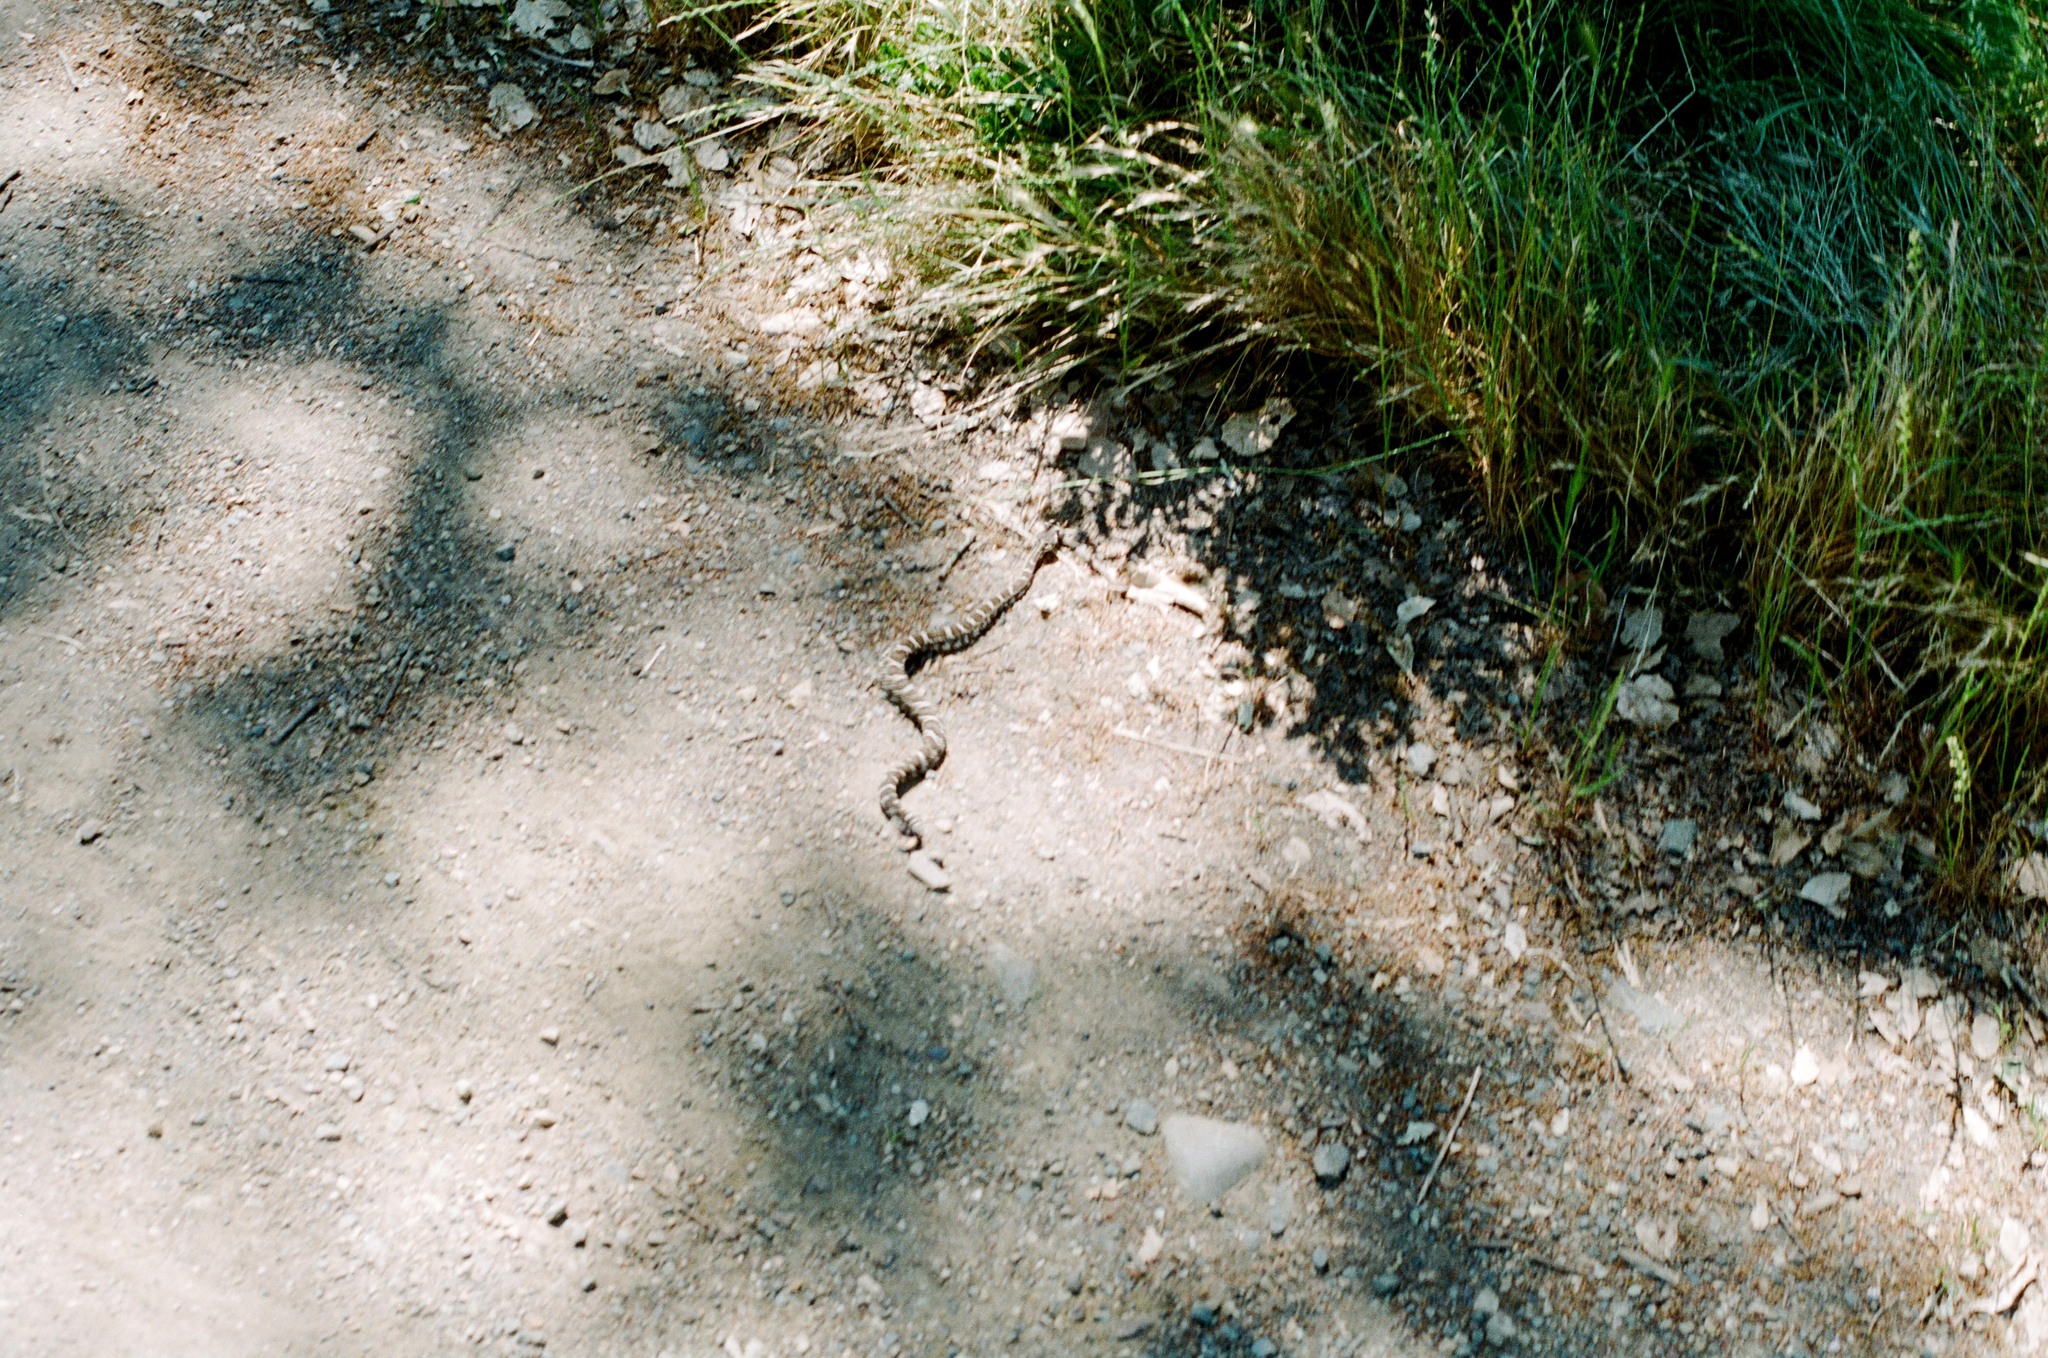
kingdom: Animalia
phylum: Chordata
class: Squamata
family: Viperidae
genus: Crotalus
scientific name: Crotalus oreganus
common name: Abyssus
